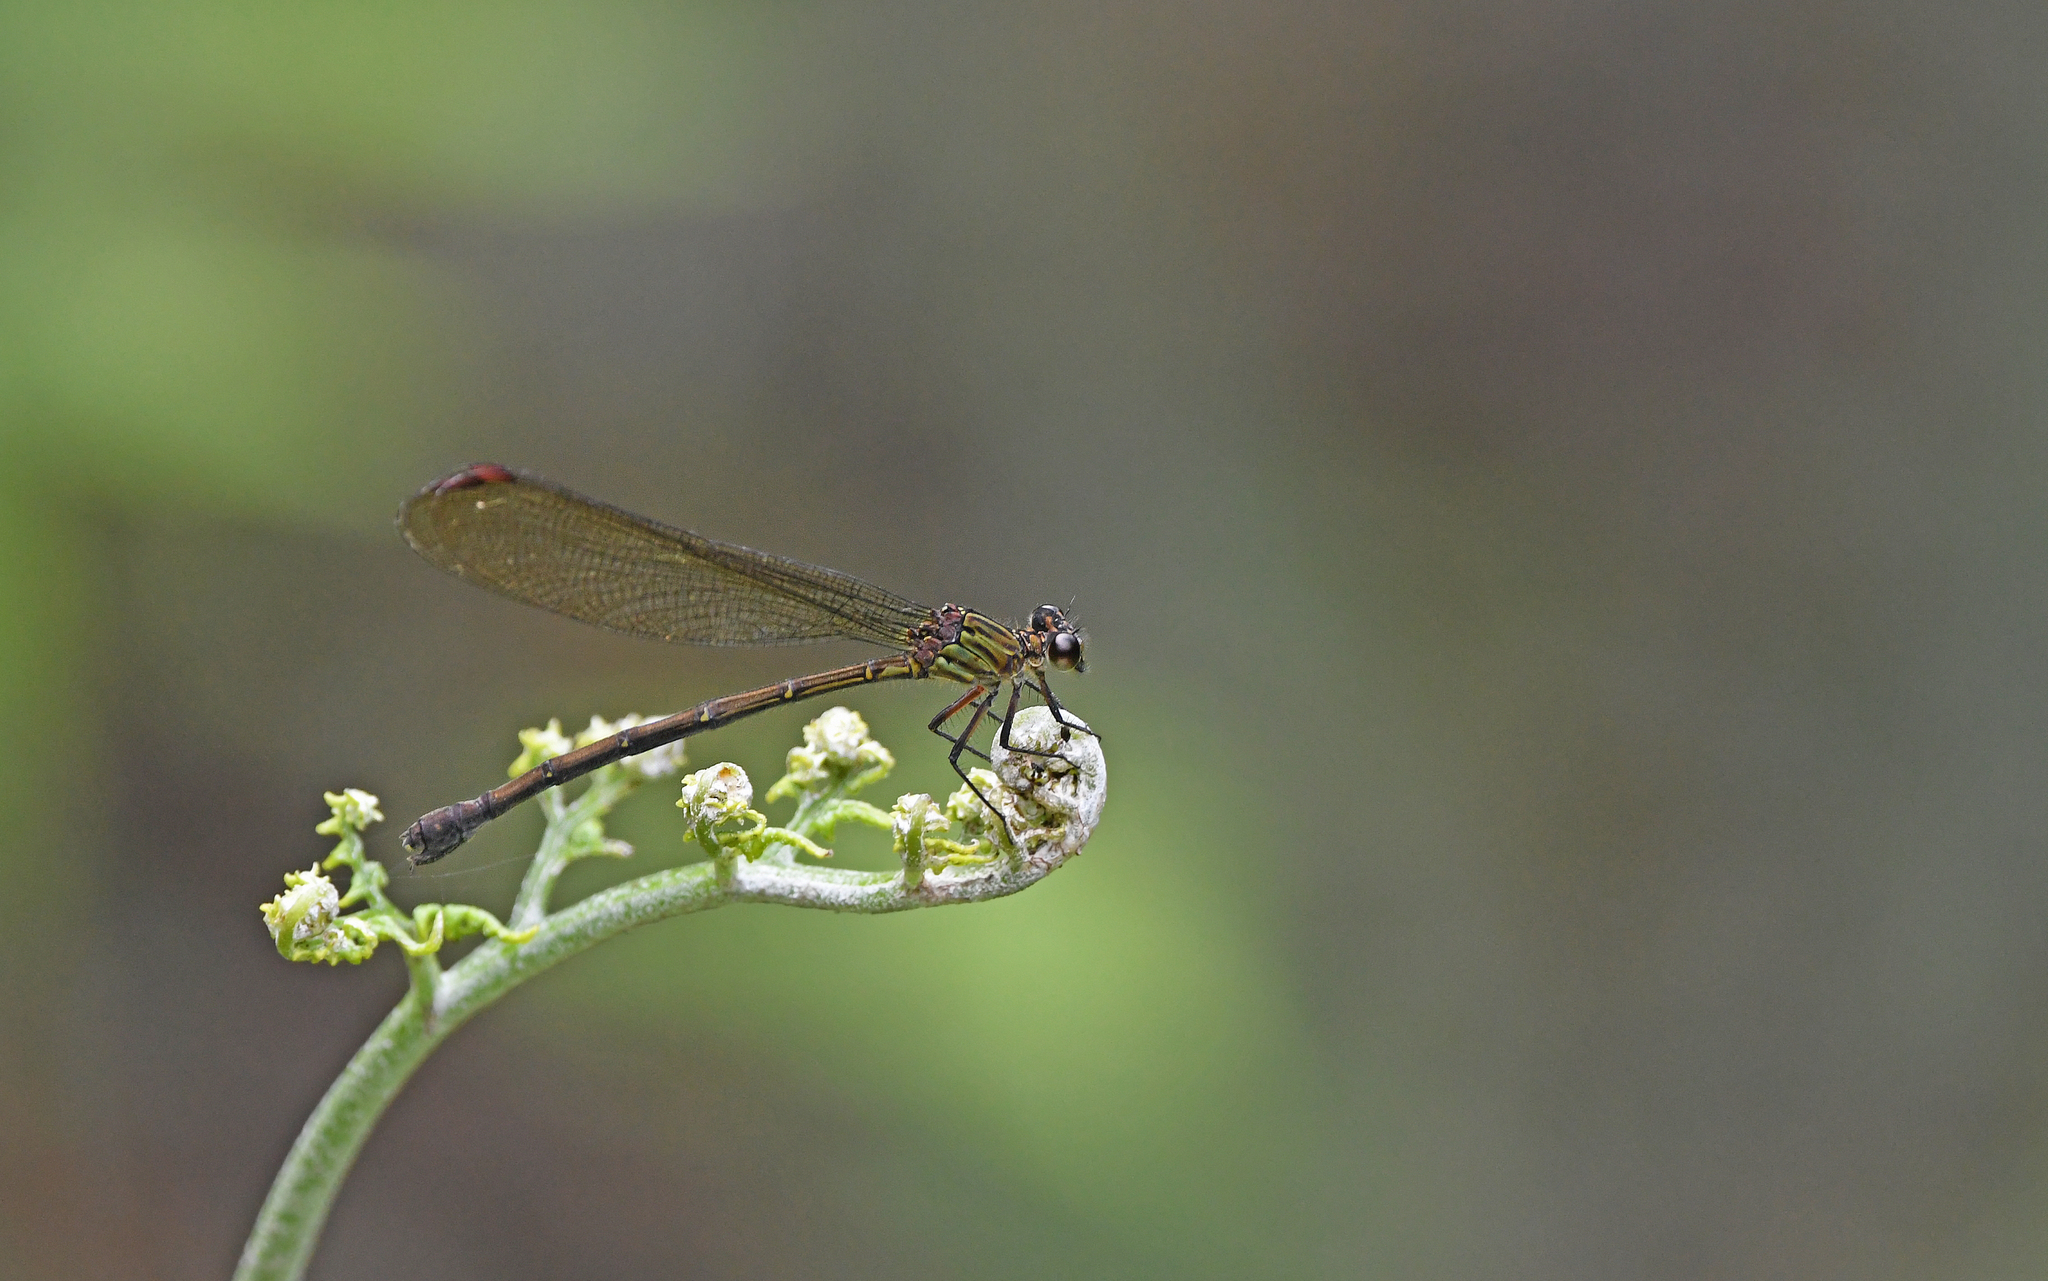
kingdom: Animalia
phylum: Arthropoda
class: Insecta
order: Odonata
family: Polythoridae
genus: Euthore
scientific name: Euthore terminalis
